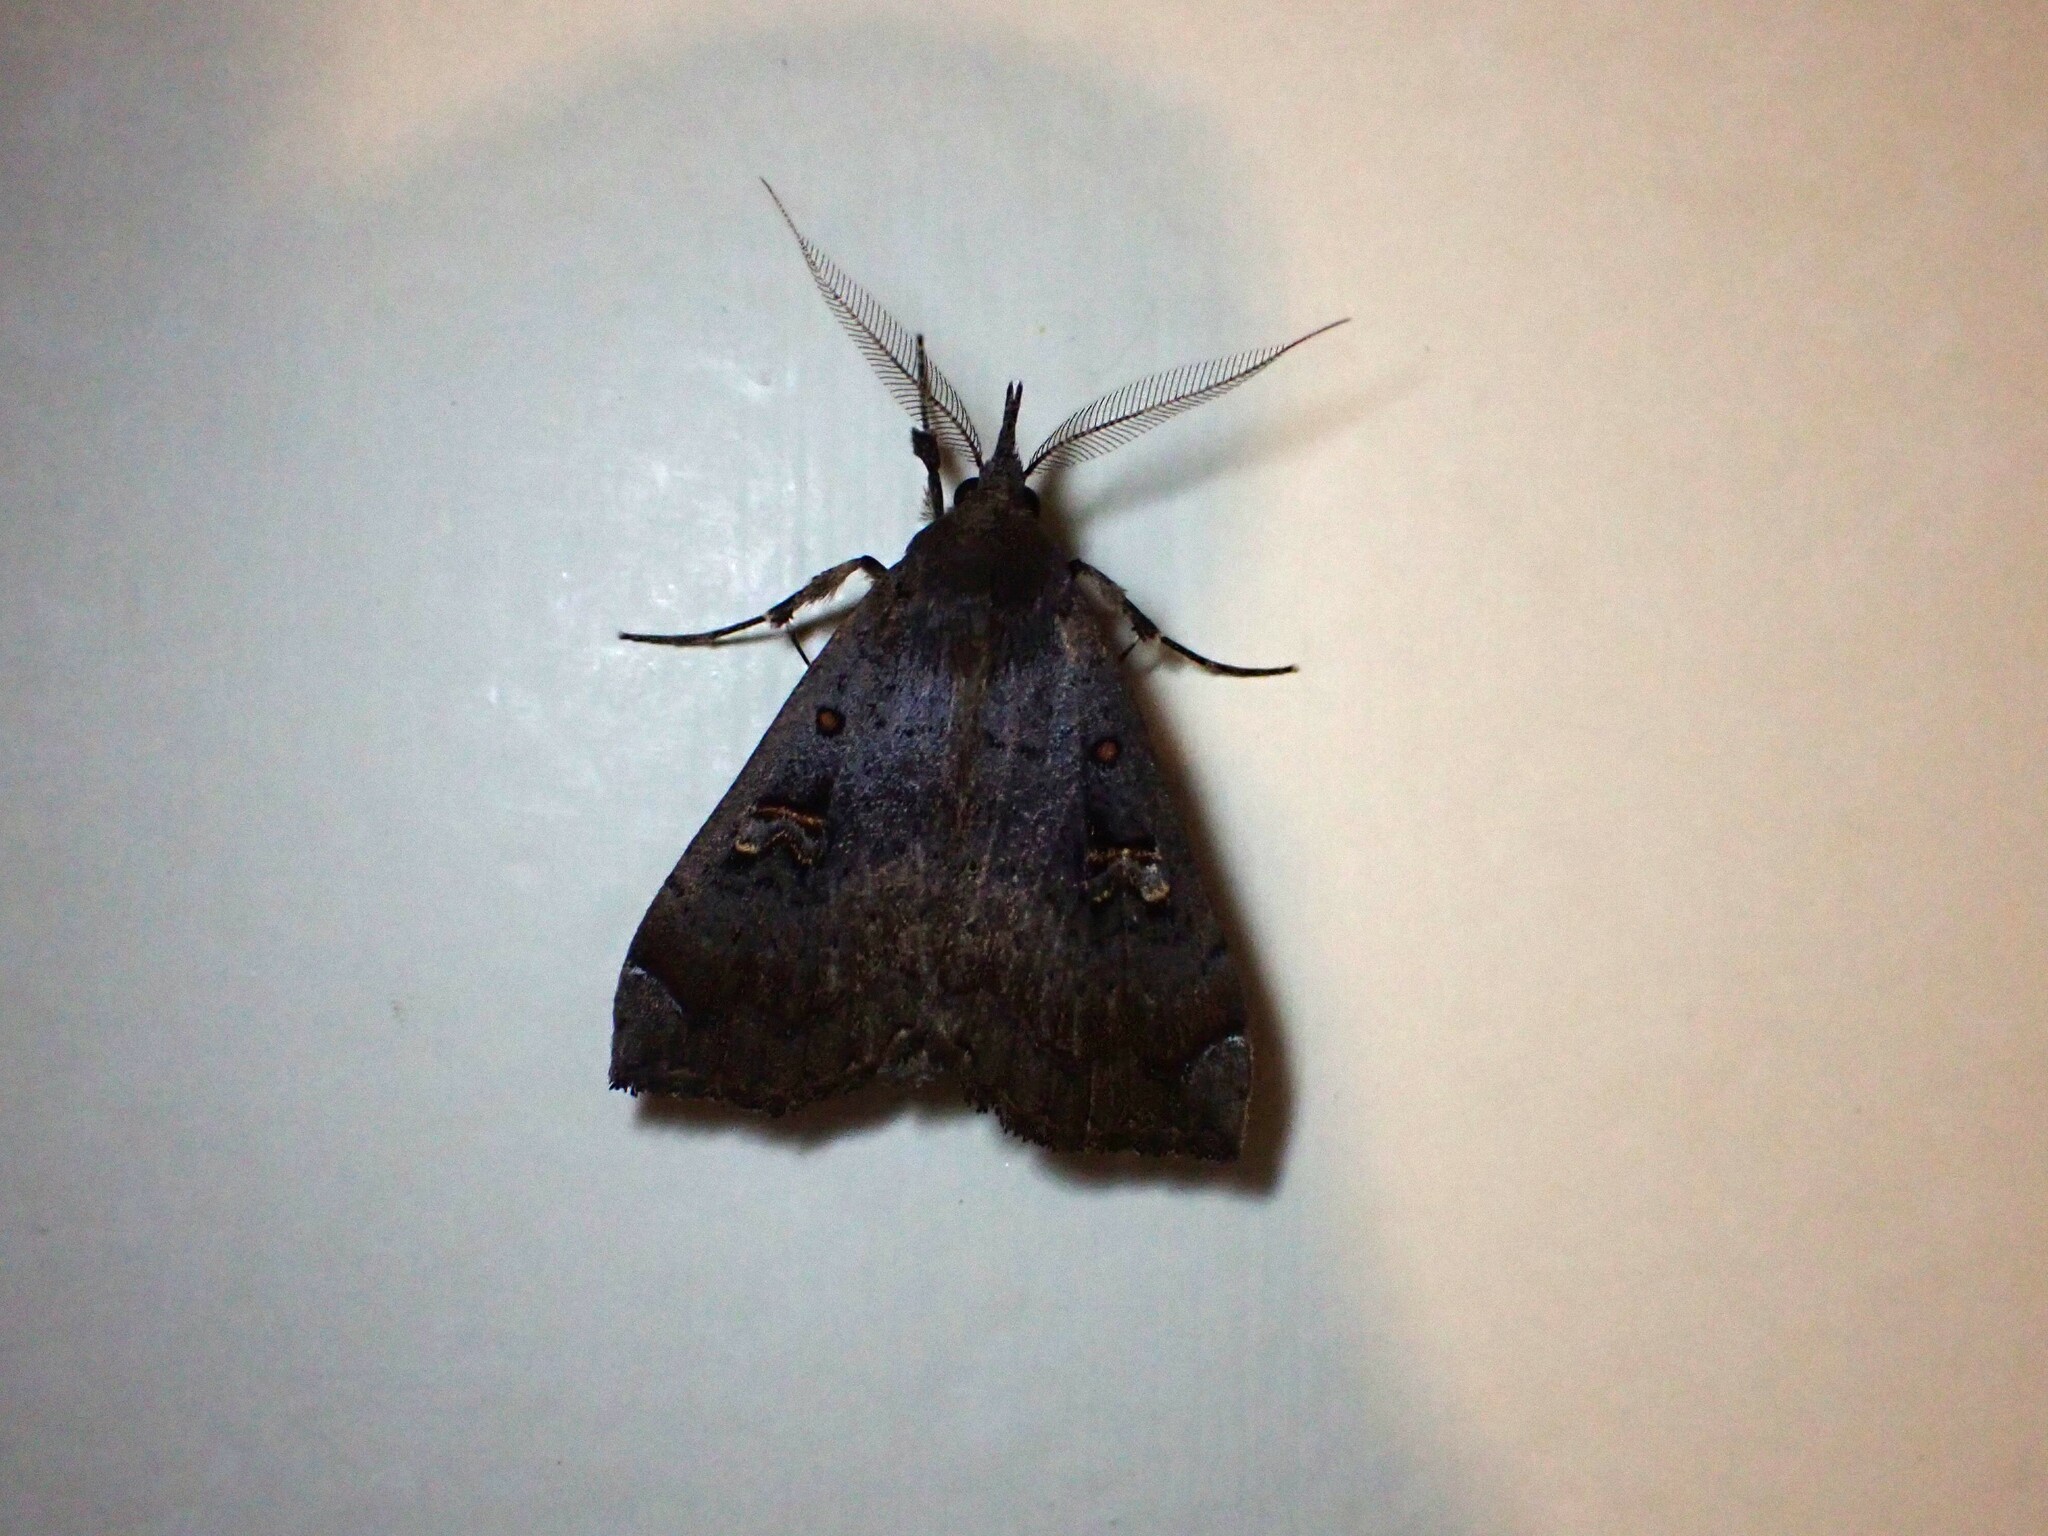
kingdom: Animalia
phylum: Arthropoda
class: Insecta
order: Lepidoptera
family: Erebidae
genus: Rhapsa
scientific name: Rhapsa scotosialis
